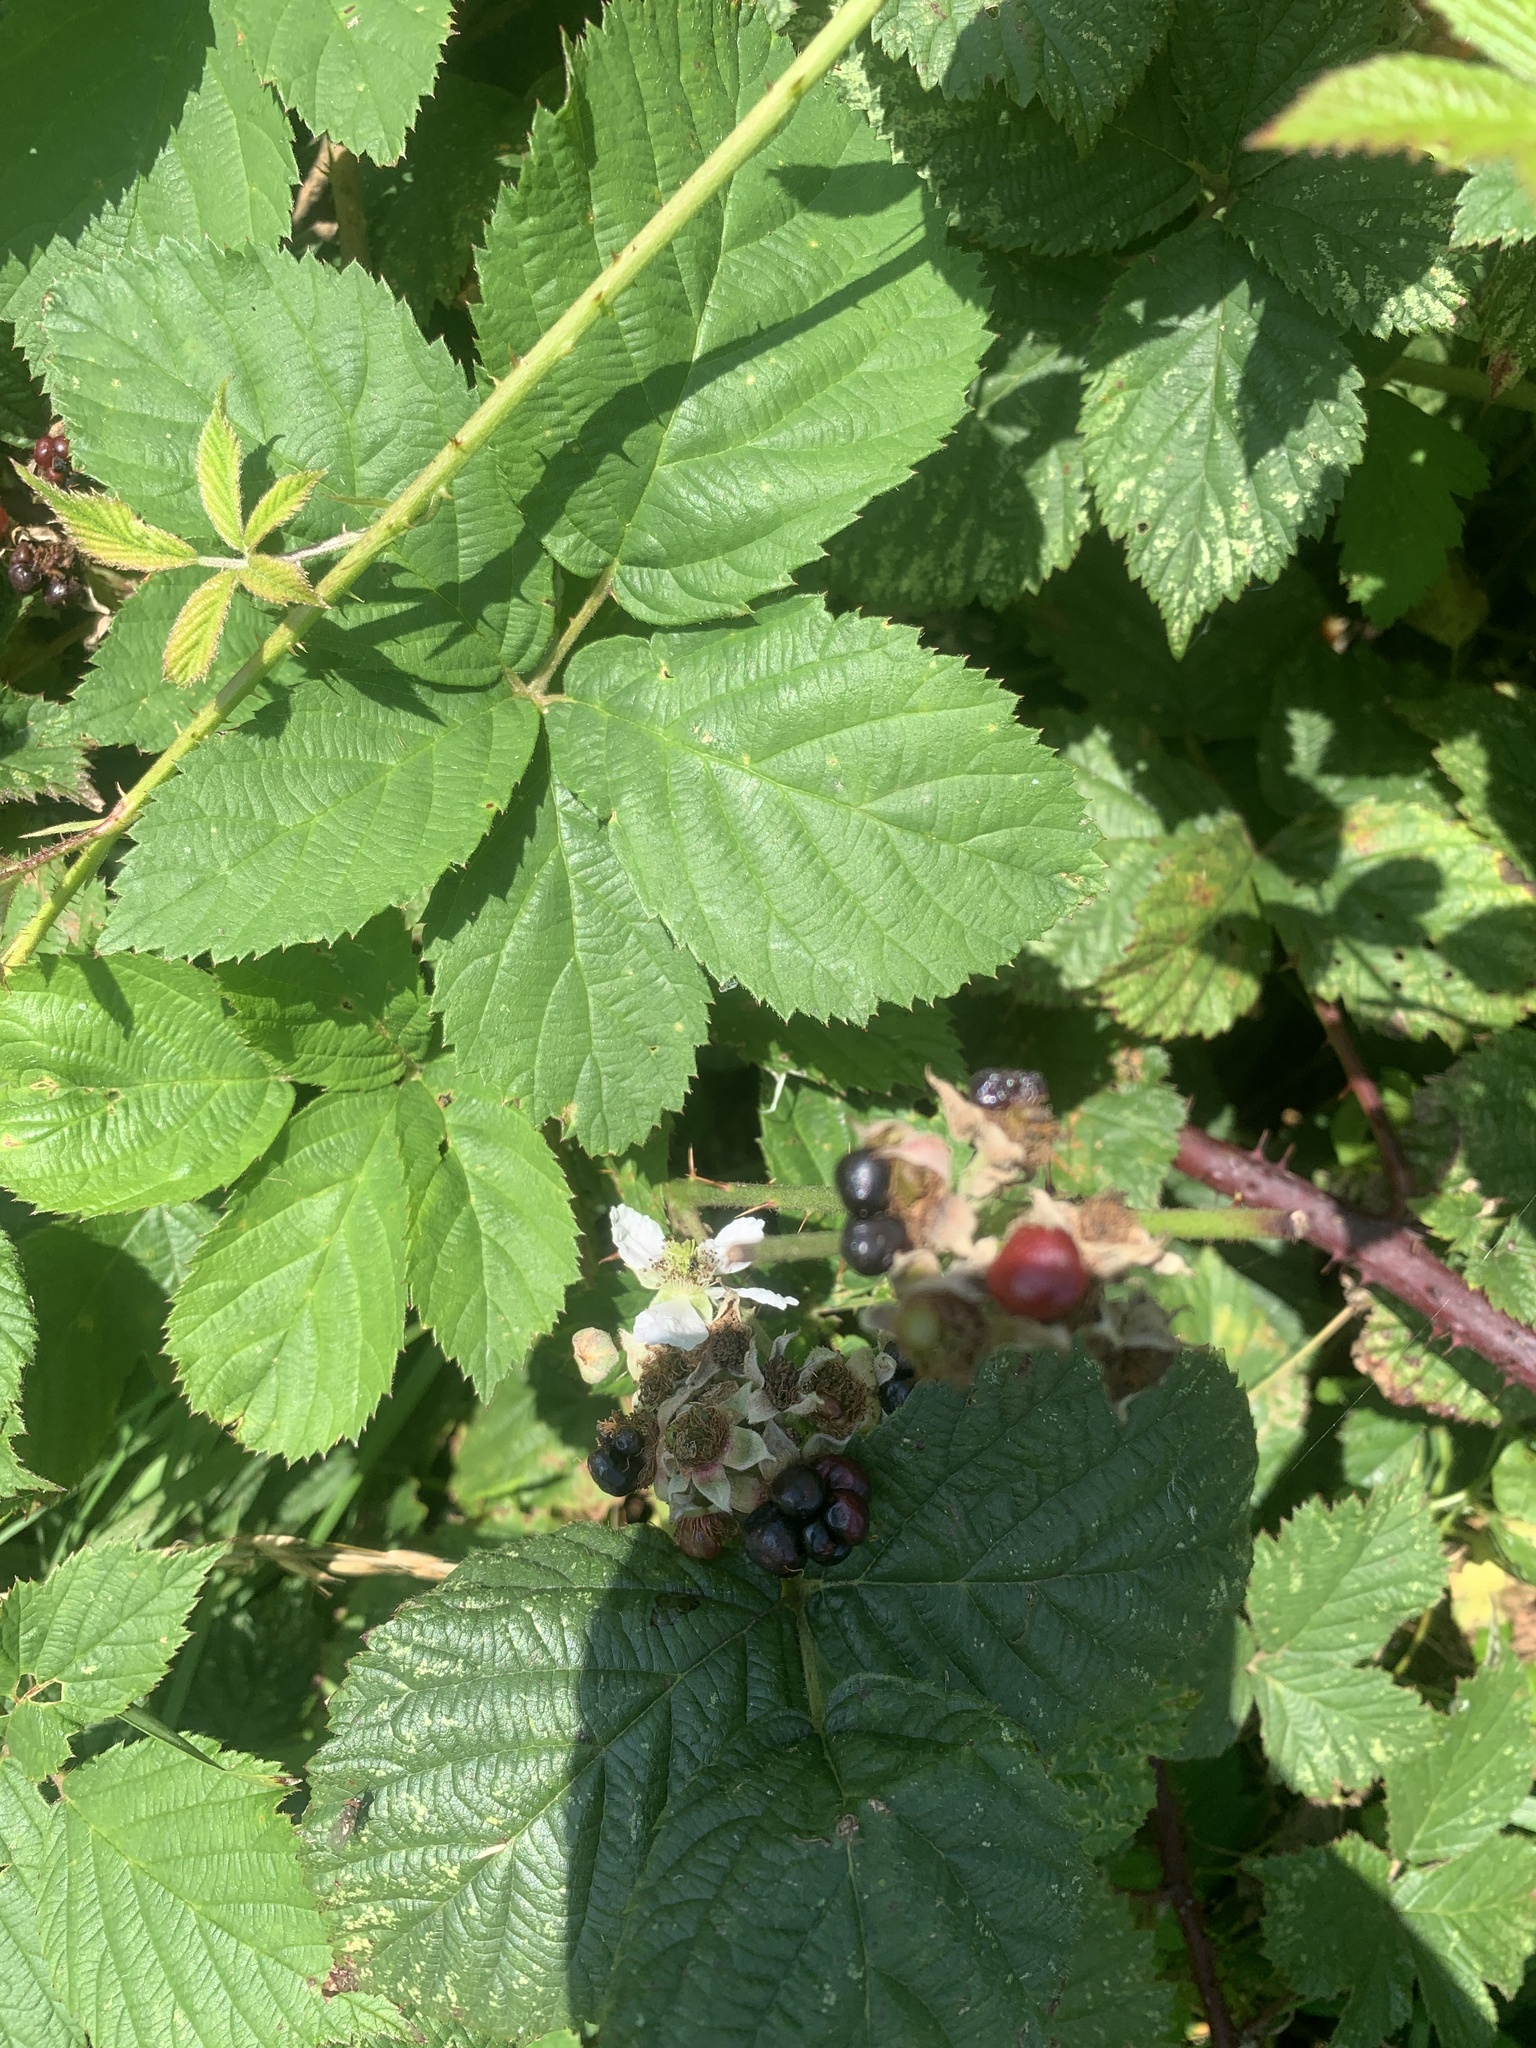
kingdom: Plantae
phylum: Tracheophyta
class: Magnoliopsida
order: Rosales
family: Rosaceae
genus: Rubus
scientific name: Rubus fruticosus
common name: Blackberry, bramble
